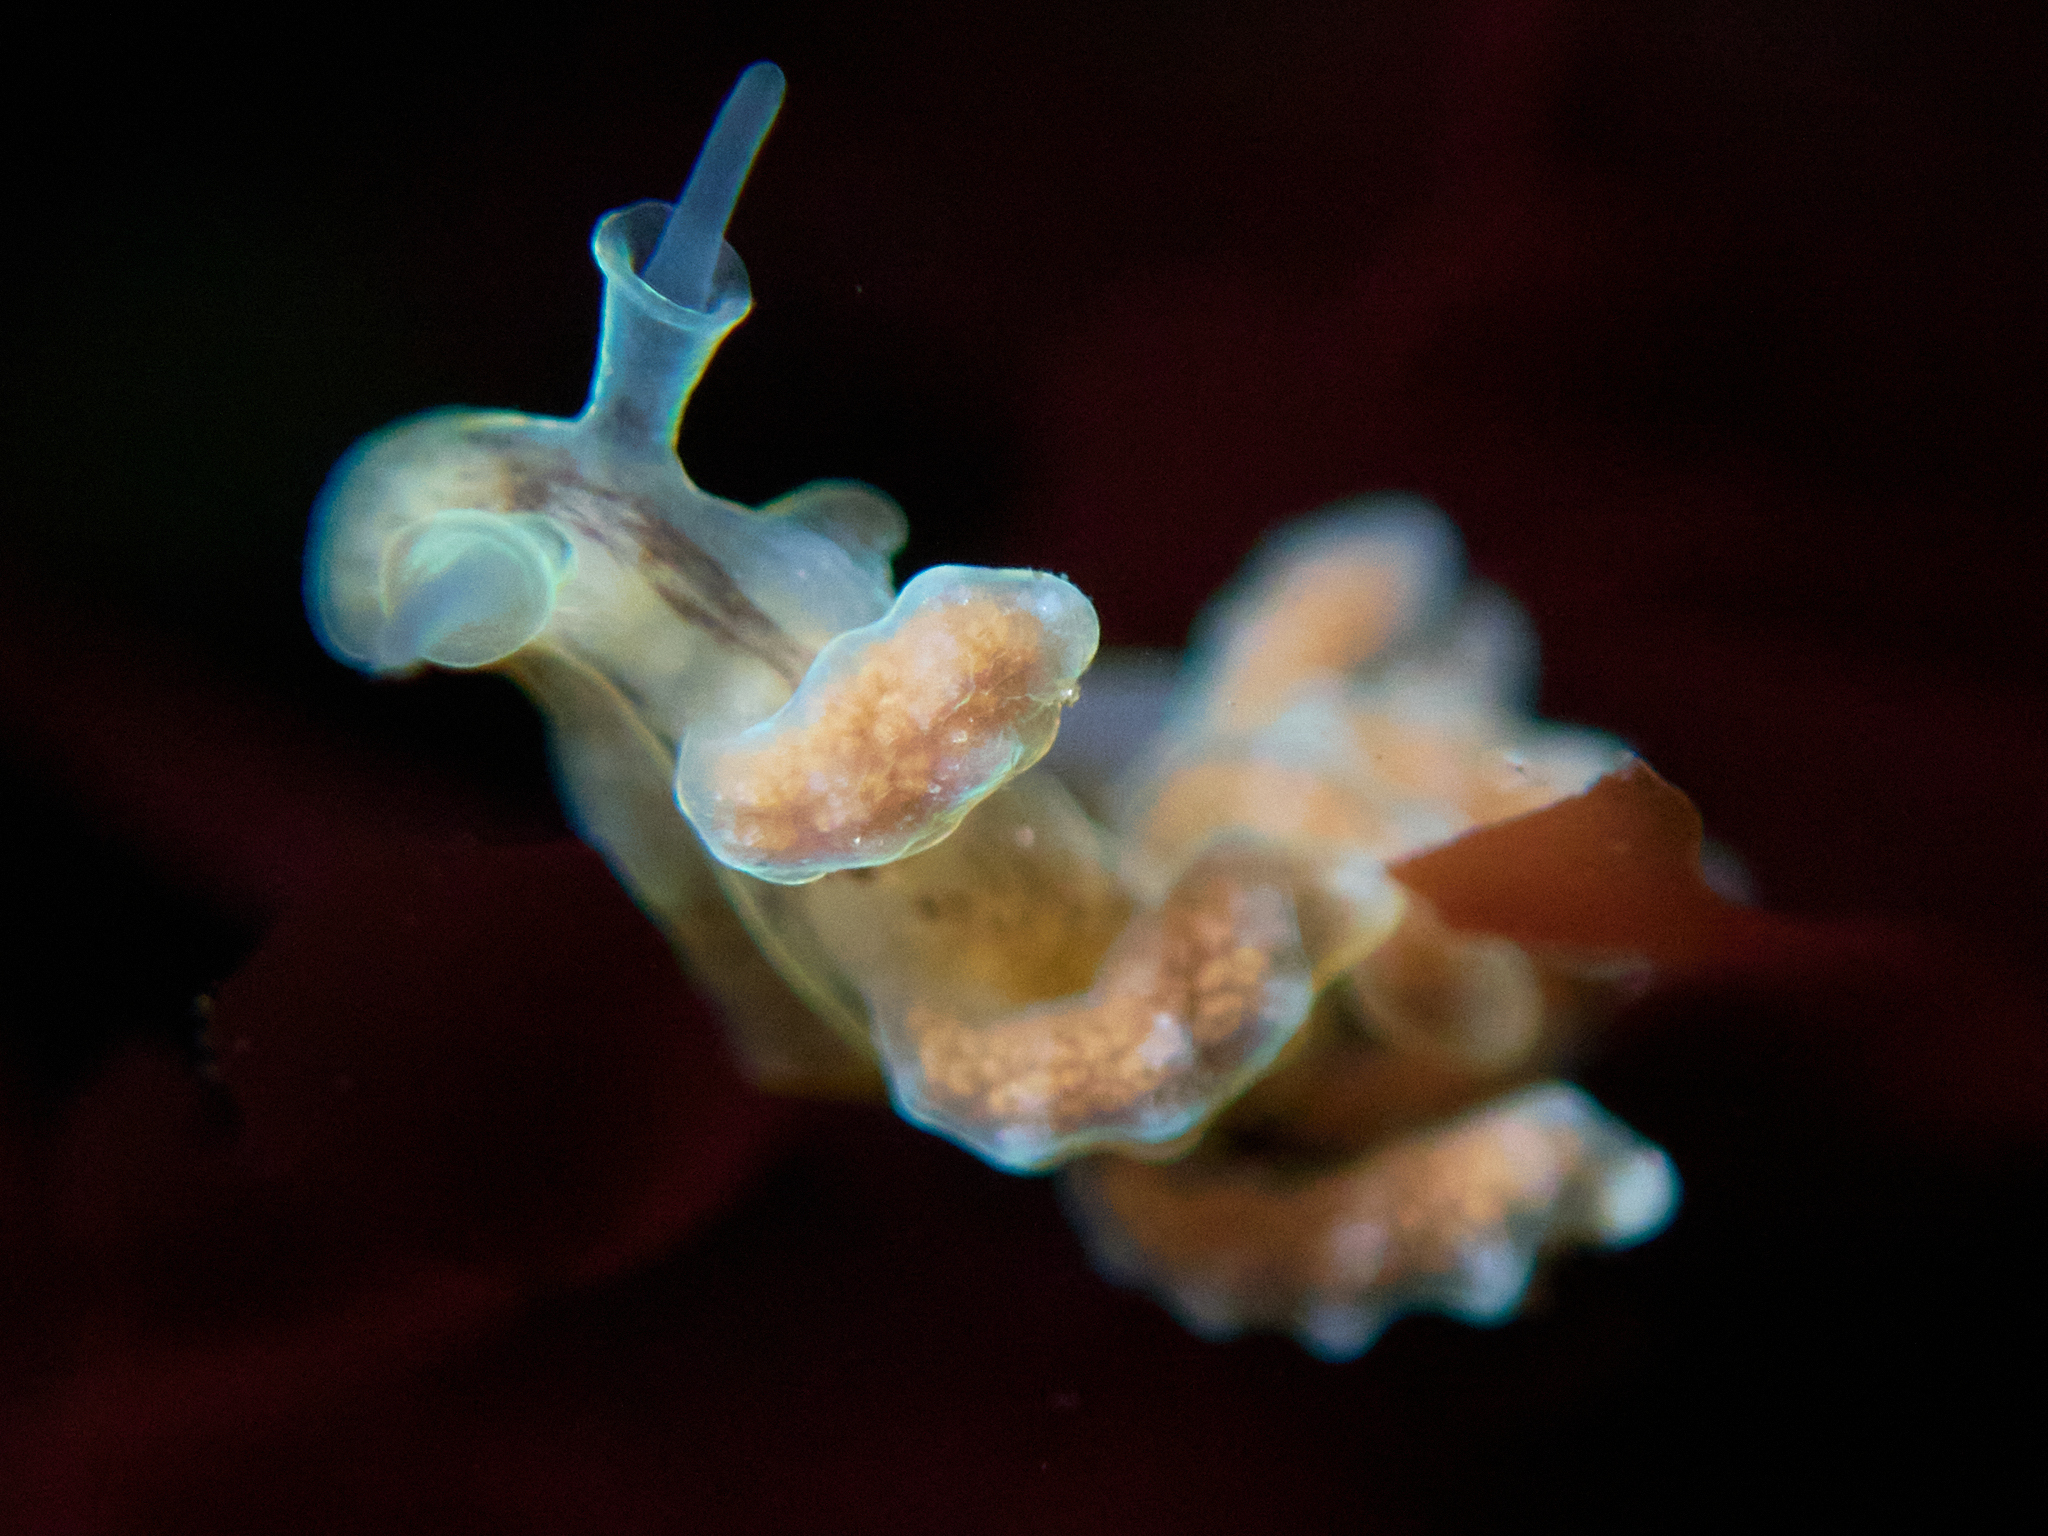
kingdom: Animalia
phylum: Mollusca
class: Gastropoda
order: Nudibranchia
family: Dotidae
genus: Doto
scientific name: Doto columbiana
